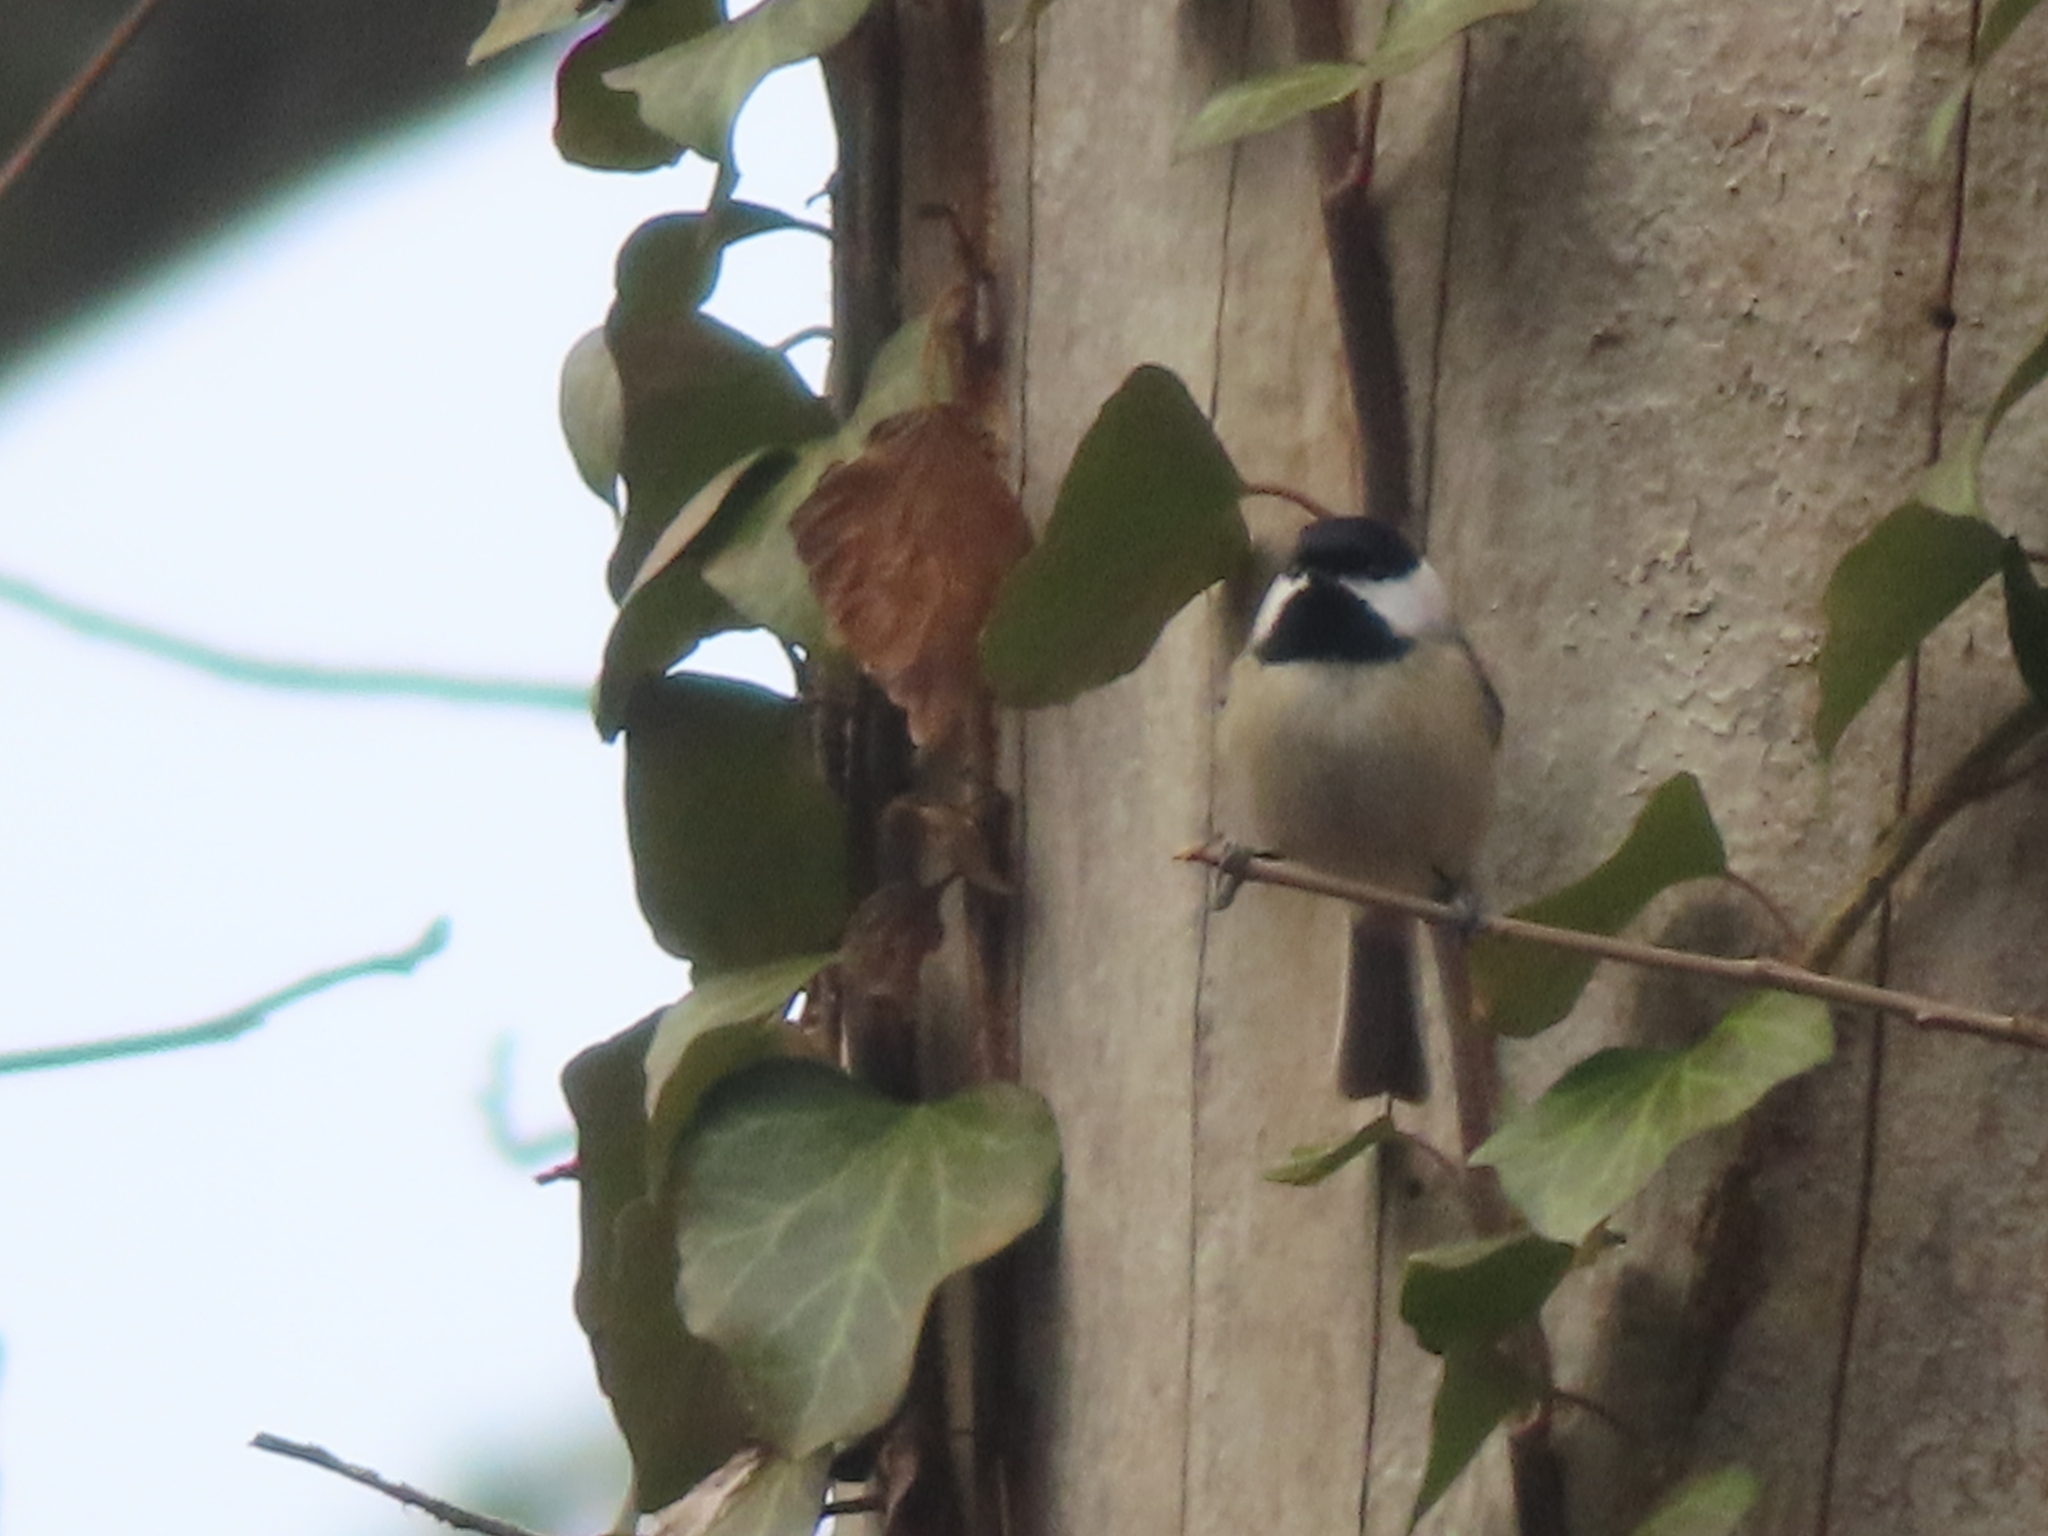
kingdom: Animalia
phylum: Chordata
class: Aves
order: Passeriformes
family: Paridae
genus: Poecile
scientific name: Poecile carolinensis
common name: Carolina chickadee
